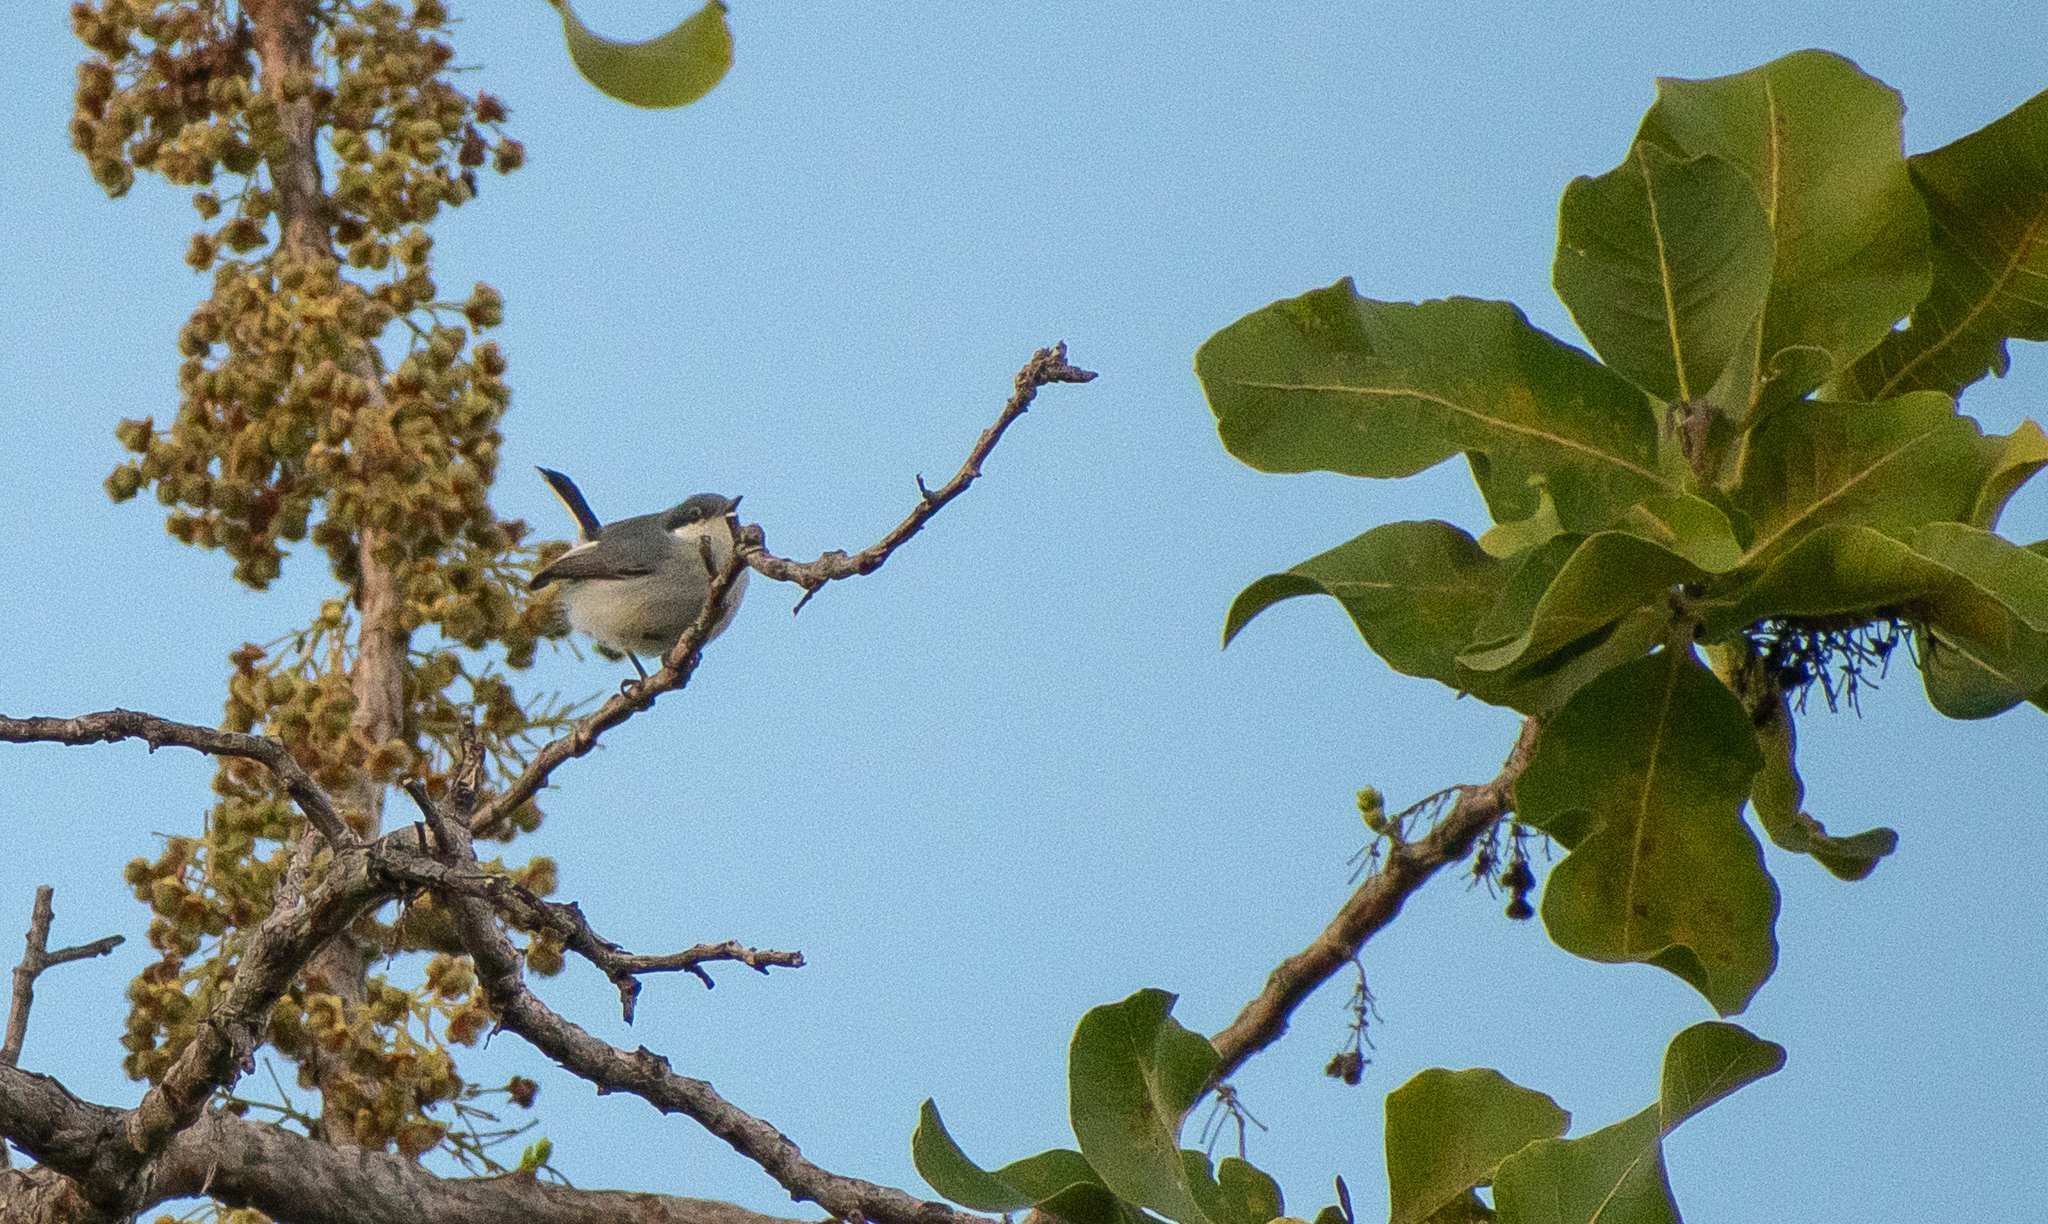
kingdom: Animalia
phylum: Chordata
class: Aves
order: Passeriformes
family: Polioptilidae
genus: Polioptila
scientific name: Polioptila plumbea
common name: Tropical gnatcatcher
